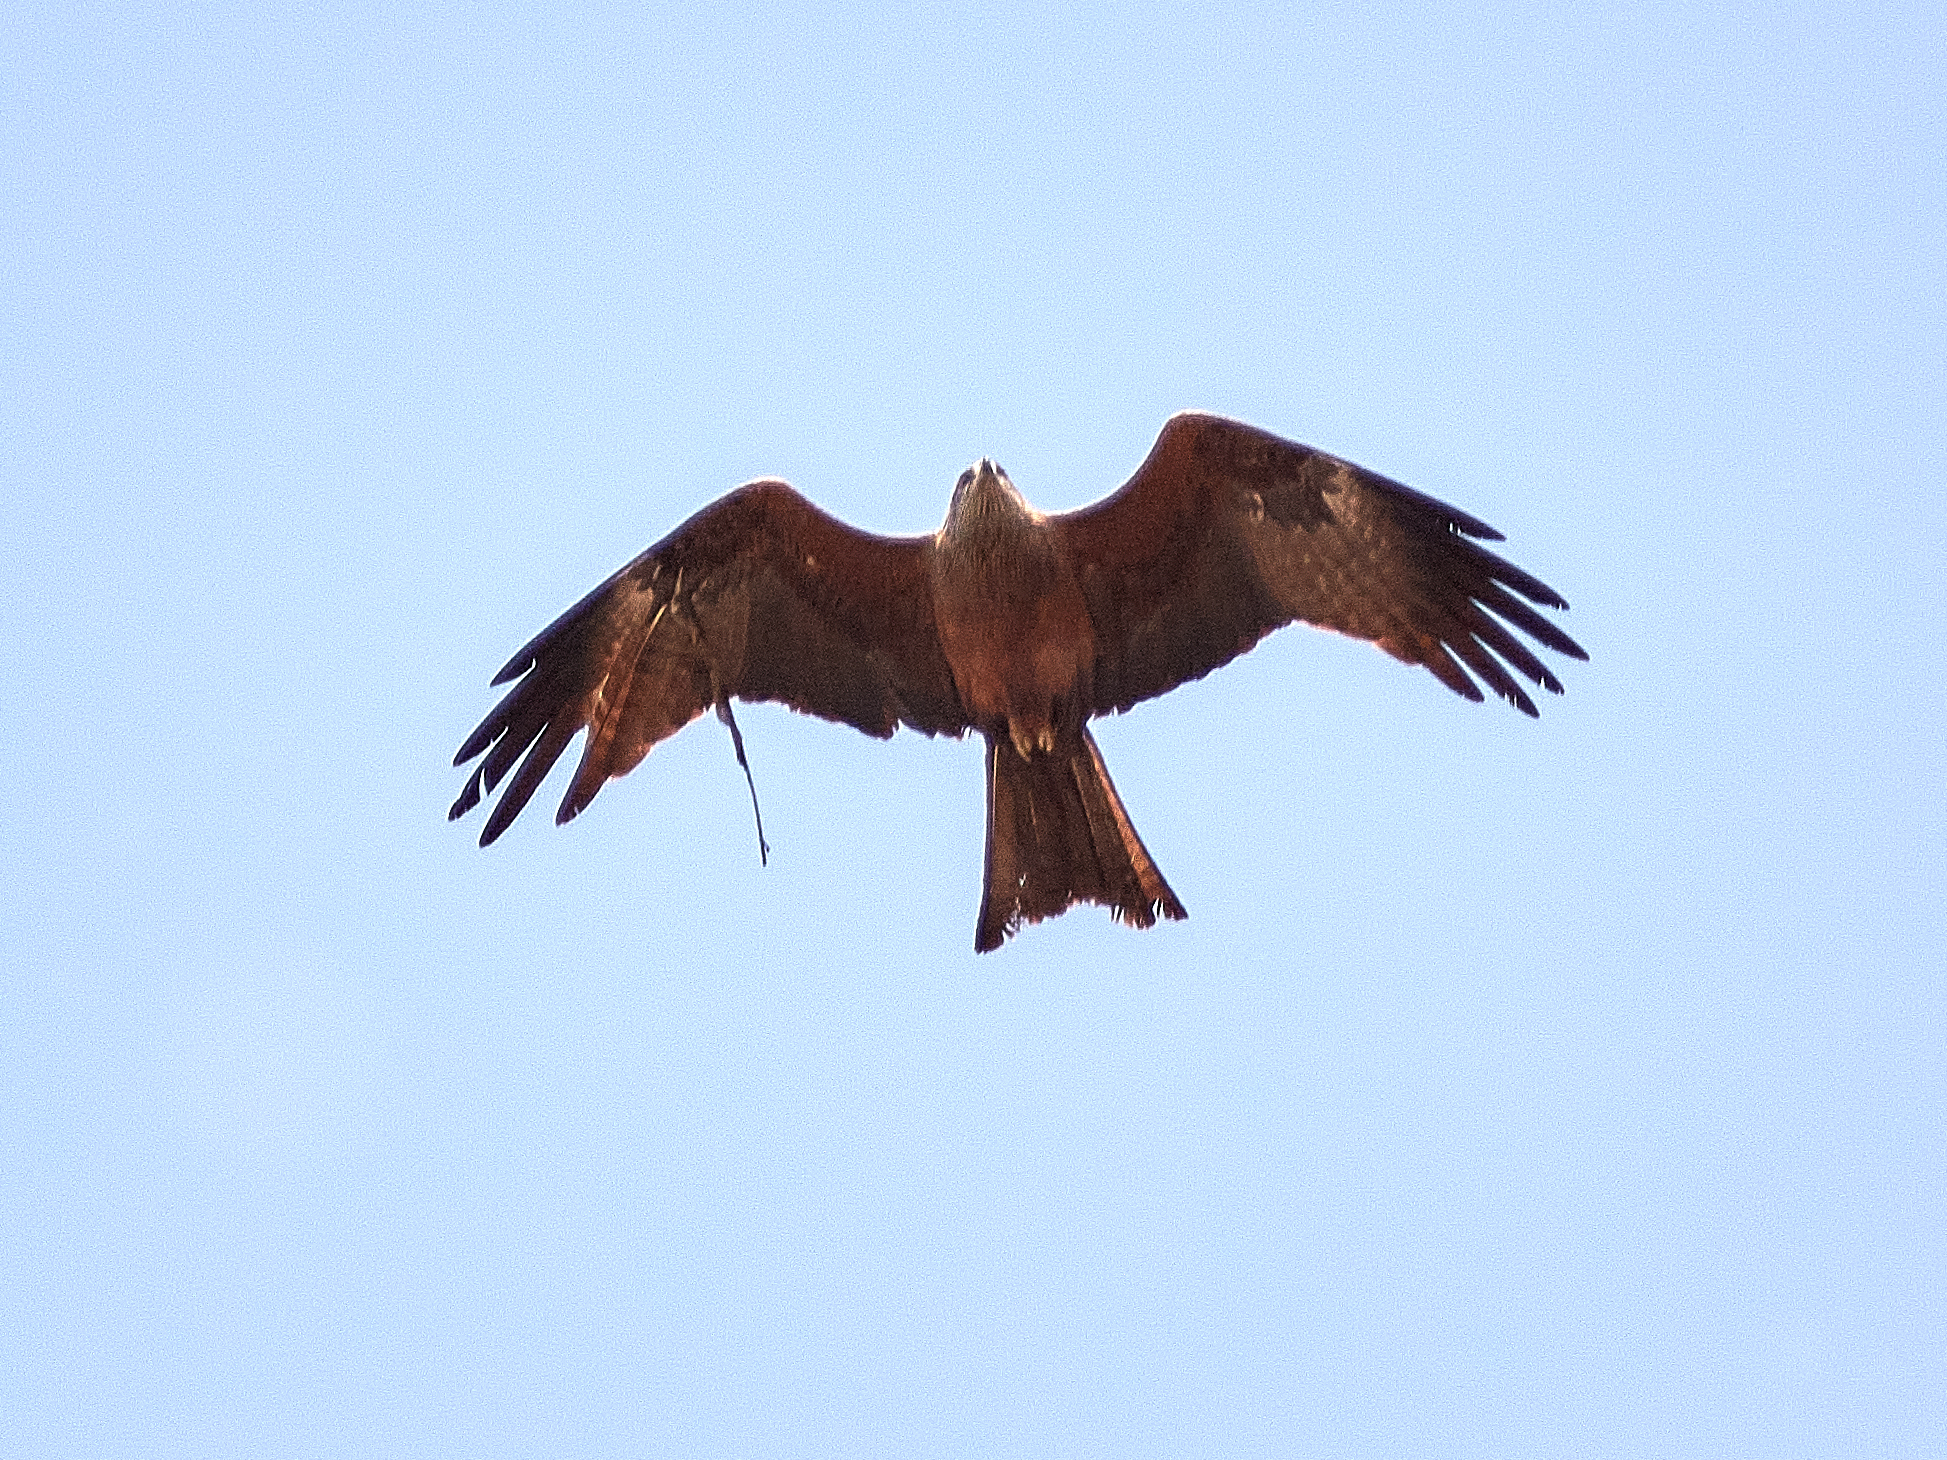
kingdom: Animalia
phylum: Chordata
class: Aves
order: Accipitriformes
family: Accipitridae
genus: Milvus
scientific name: Milvus migrans
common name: Black kite
